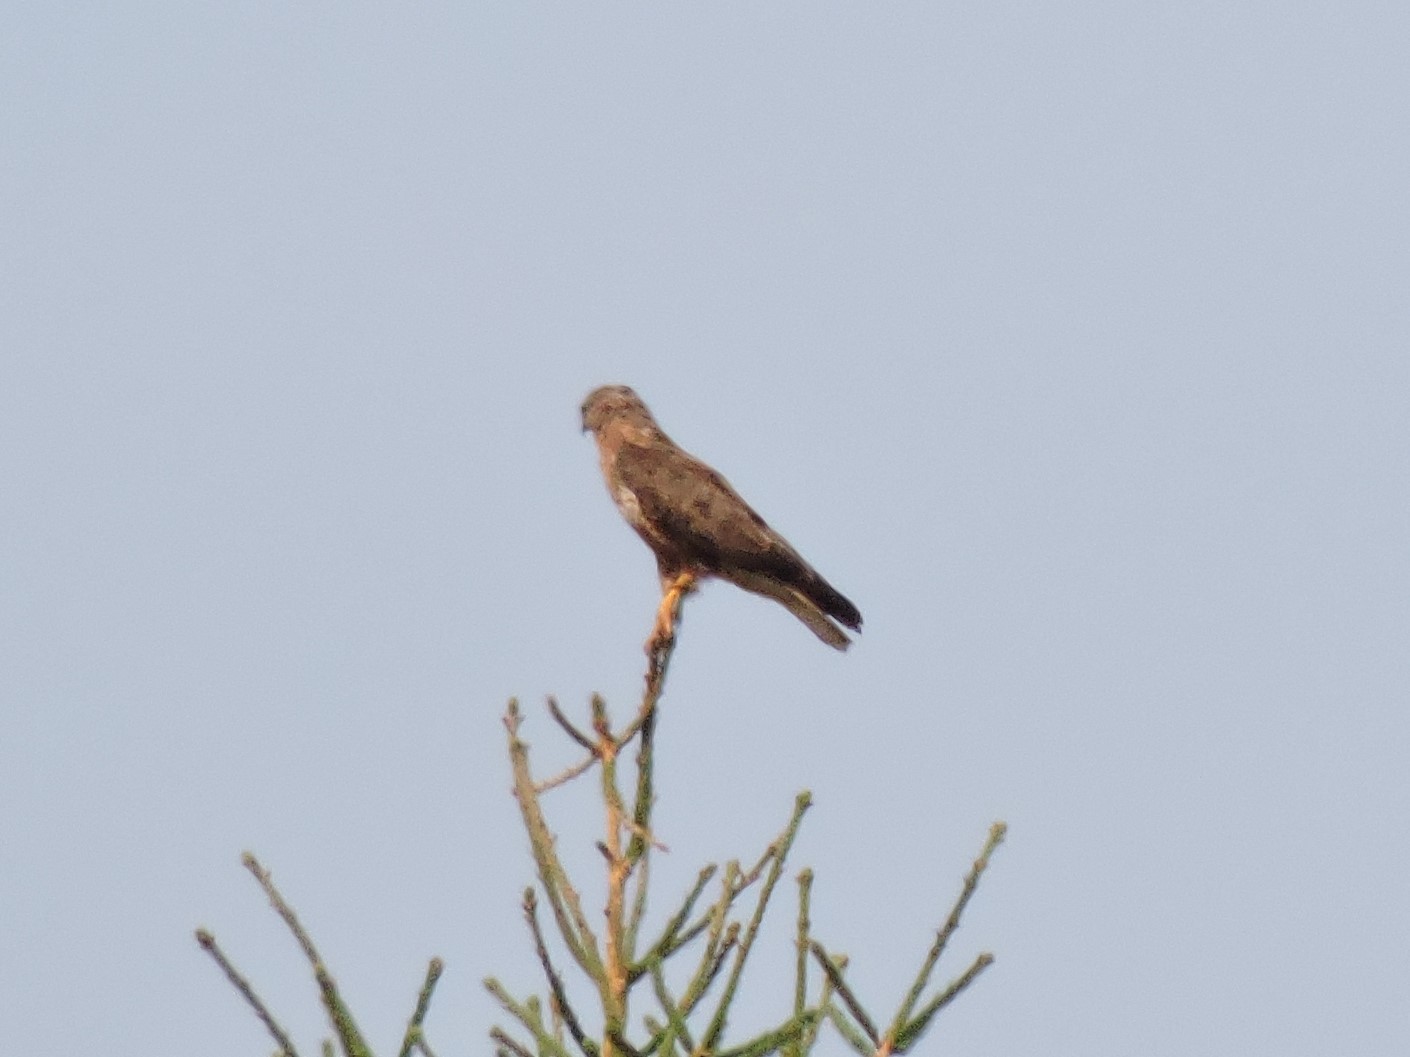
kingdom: Animalia
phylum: Chordata
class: Aves
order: Accipitriformes
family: Accipitridae
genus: Buteo
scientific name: Buteo buteo
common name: Common buzzard
